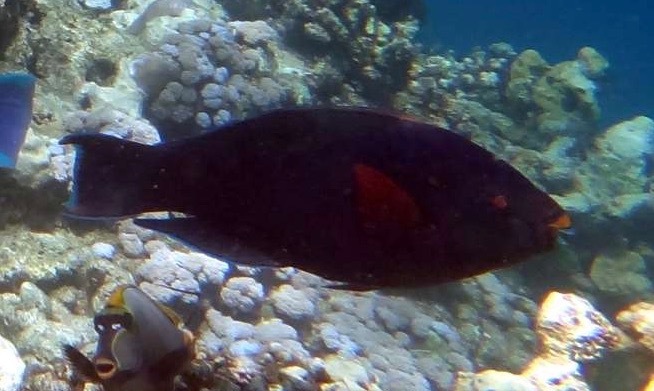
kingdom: Animalia
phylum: Chordata
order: Perciformes
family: Scaridae
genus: Scarus
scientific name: Scarus niger
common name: Dusky parrotfish
